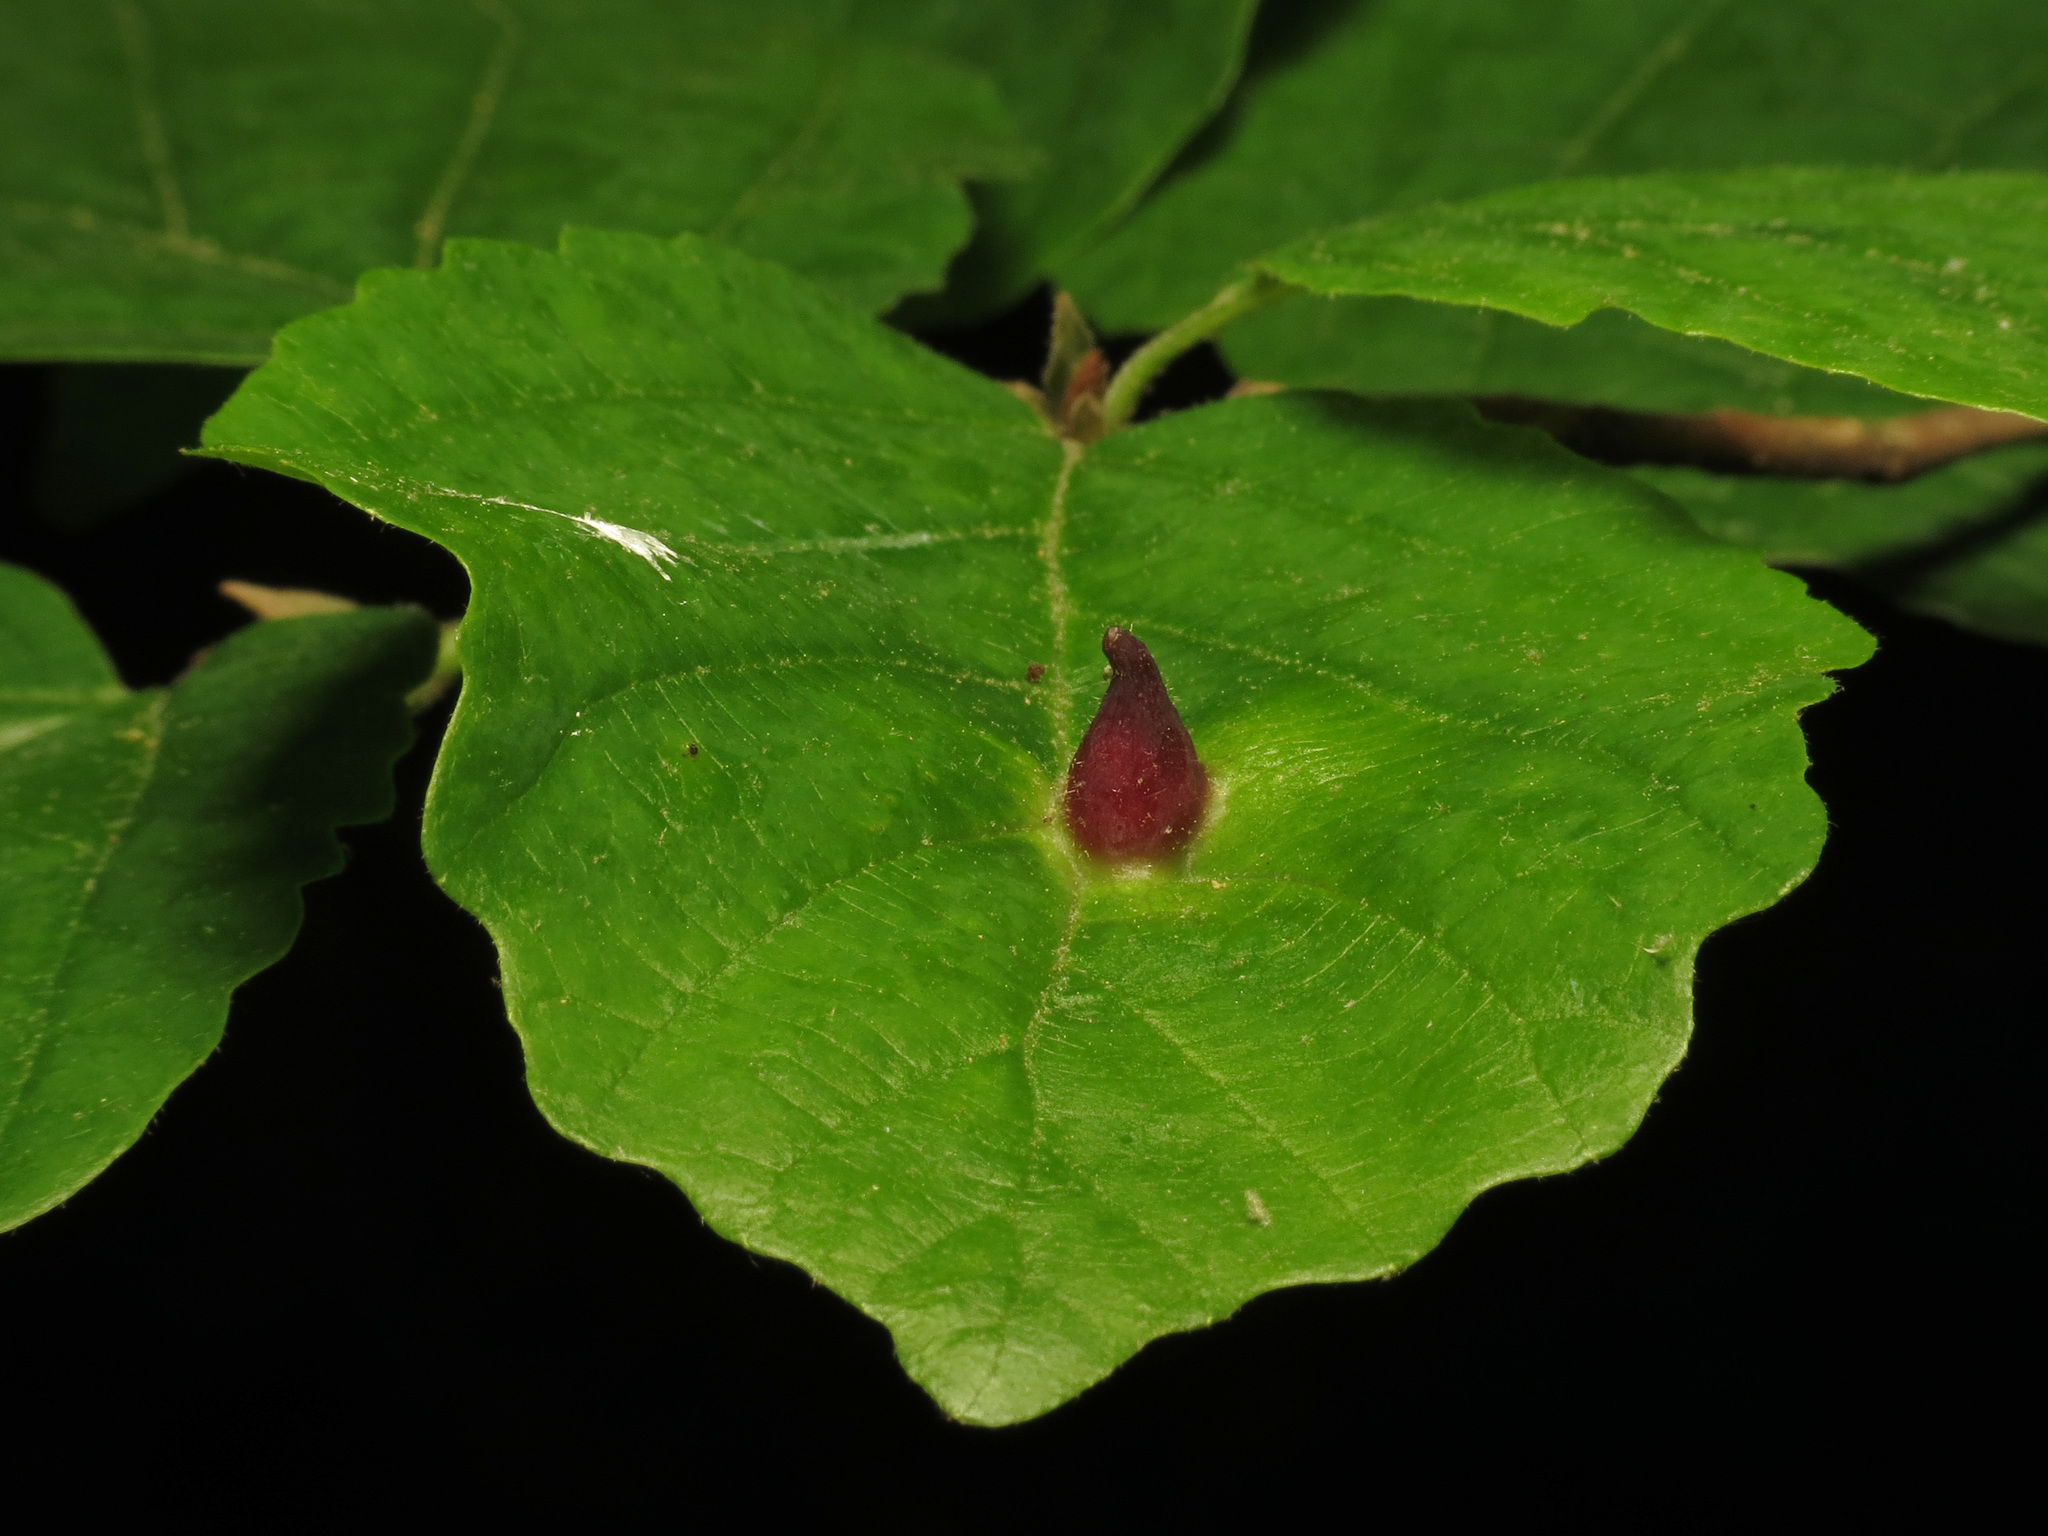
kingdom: Animalia
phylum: Arthropoda
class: Insecta
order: Hemiptera
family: Aphididae
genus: Hormaphis
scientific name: Hormaphis hamamelidis
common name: Witch-hazel cone gall aphid
